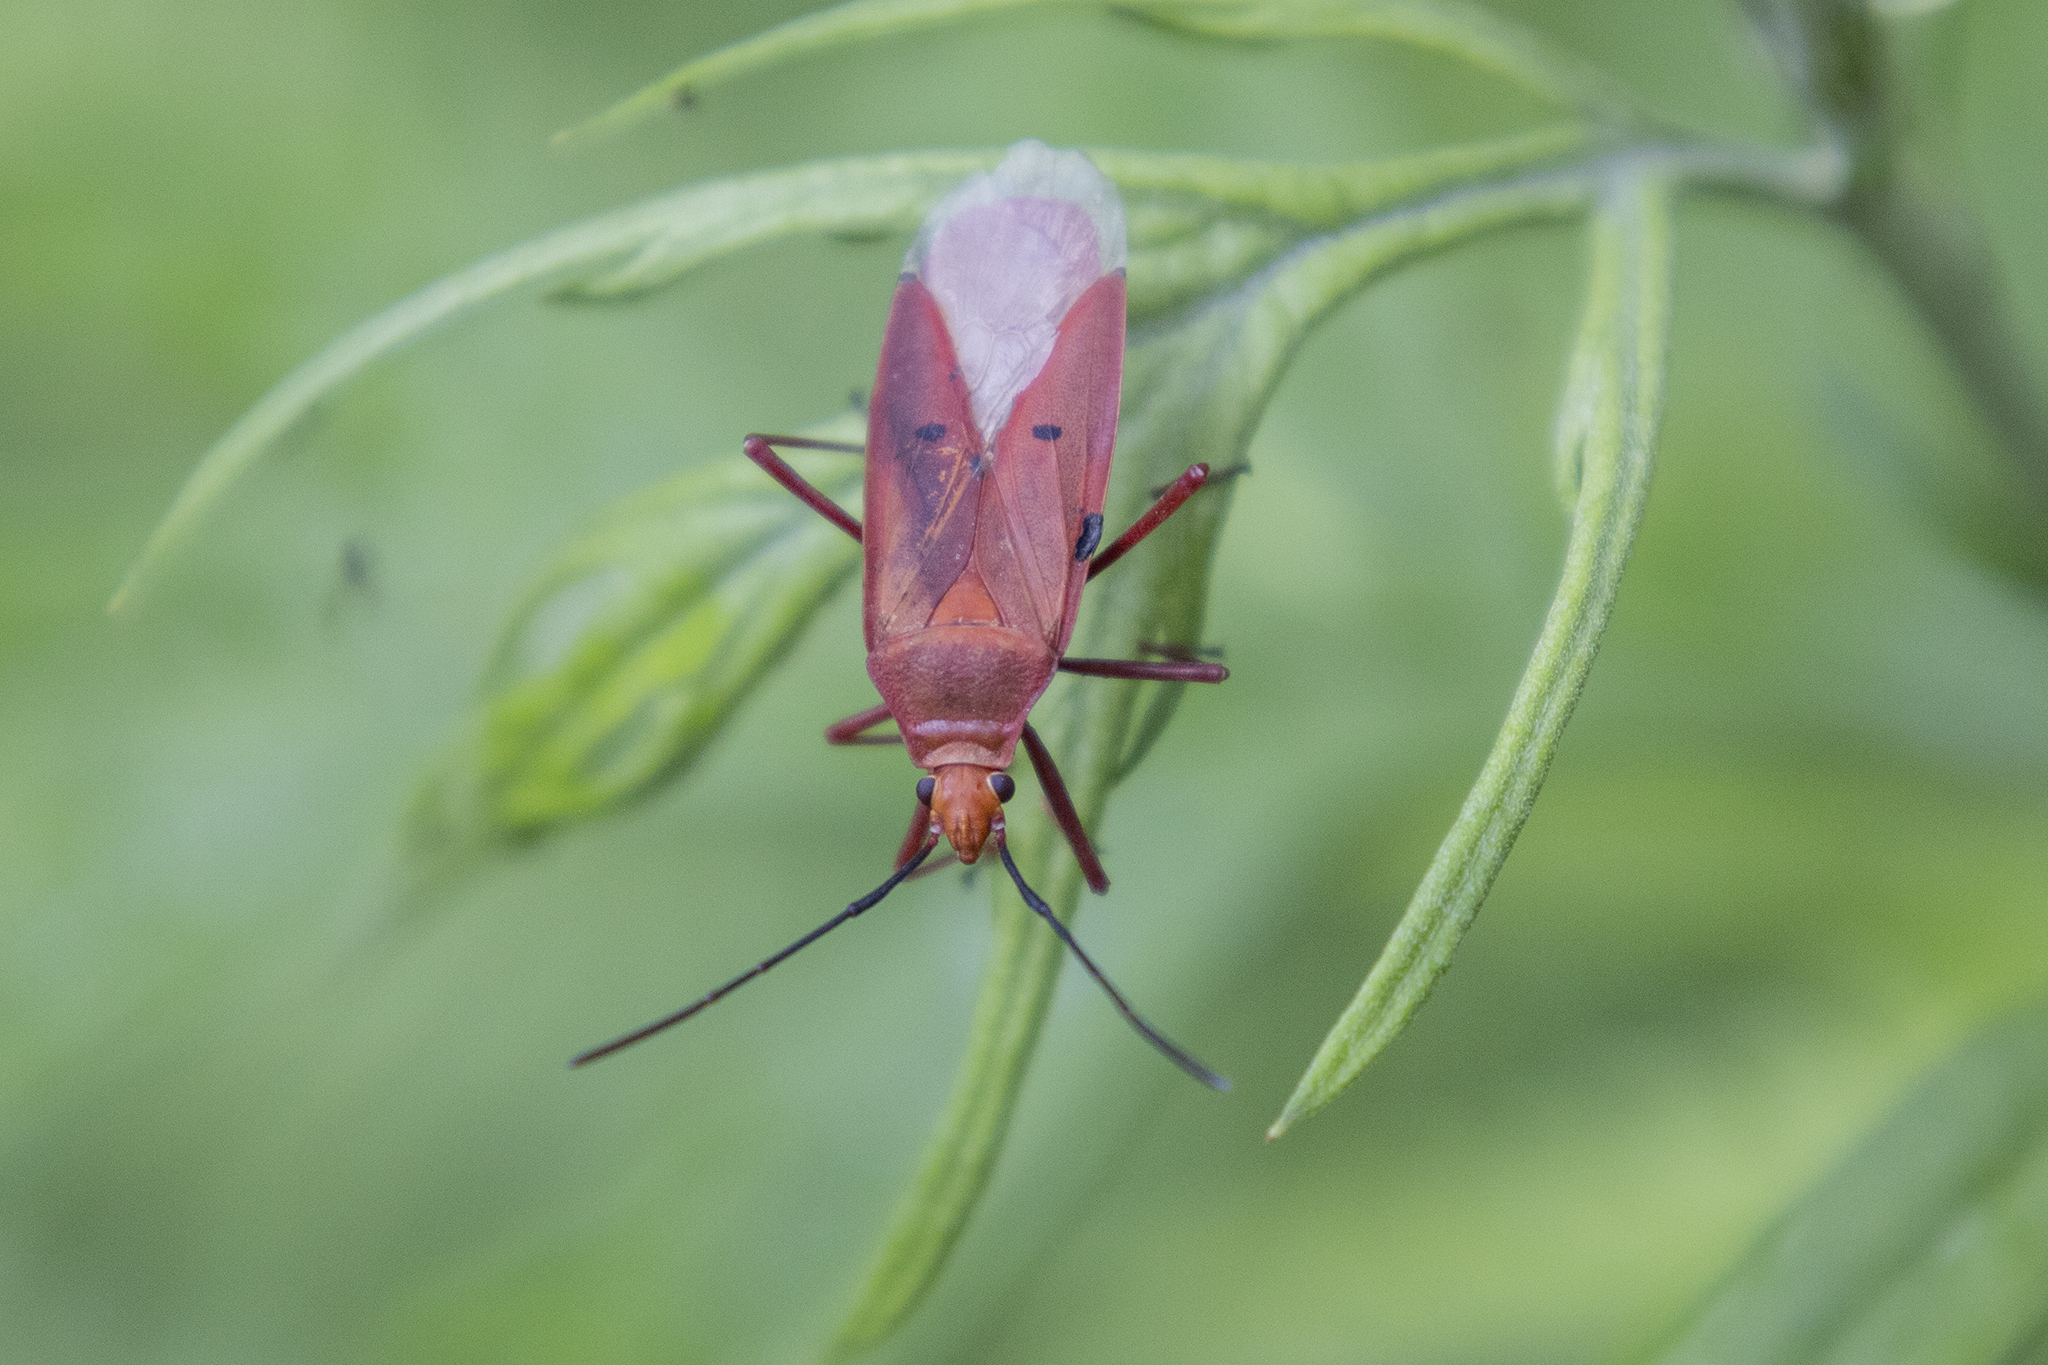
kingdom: Animalia
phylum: Arthropoda
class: Insecta
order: Hemiptera
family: Pyrrhocoridae
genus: Dysdercus
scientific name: Dysdercus evanescens
